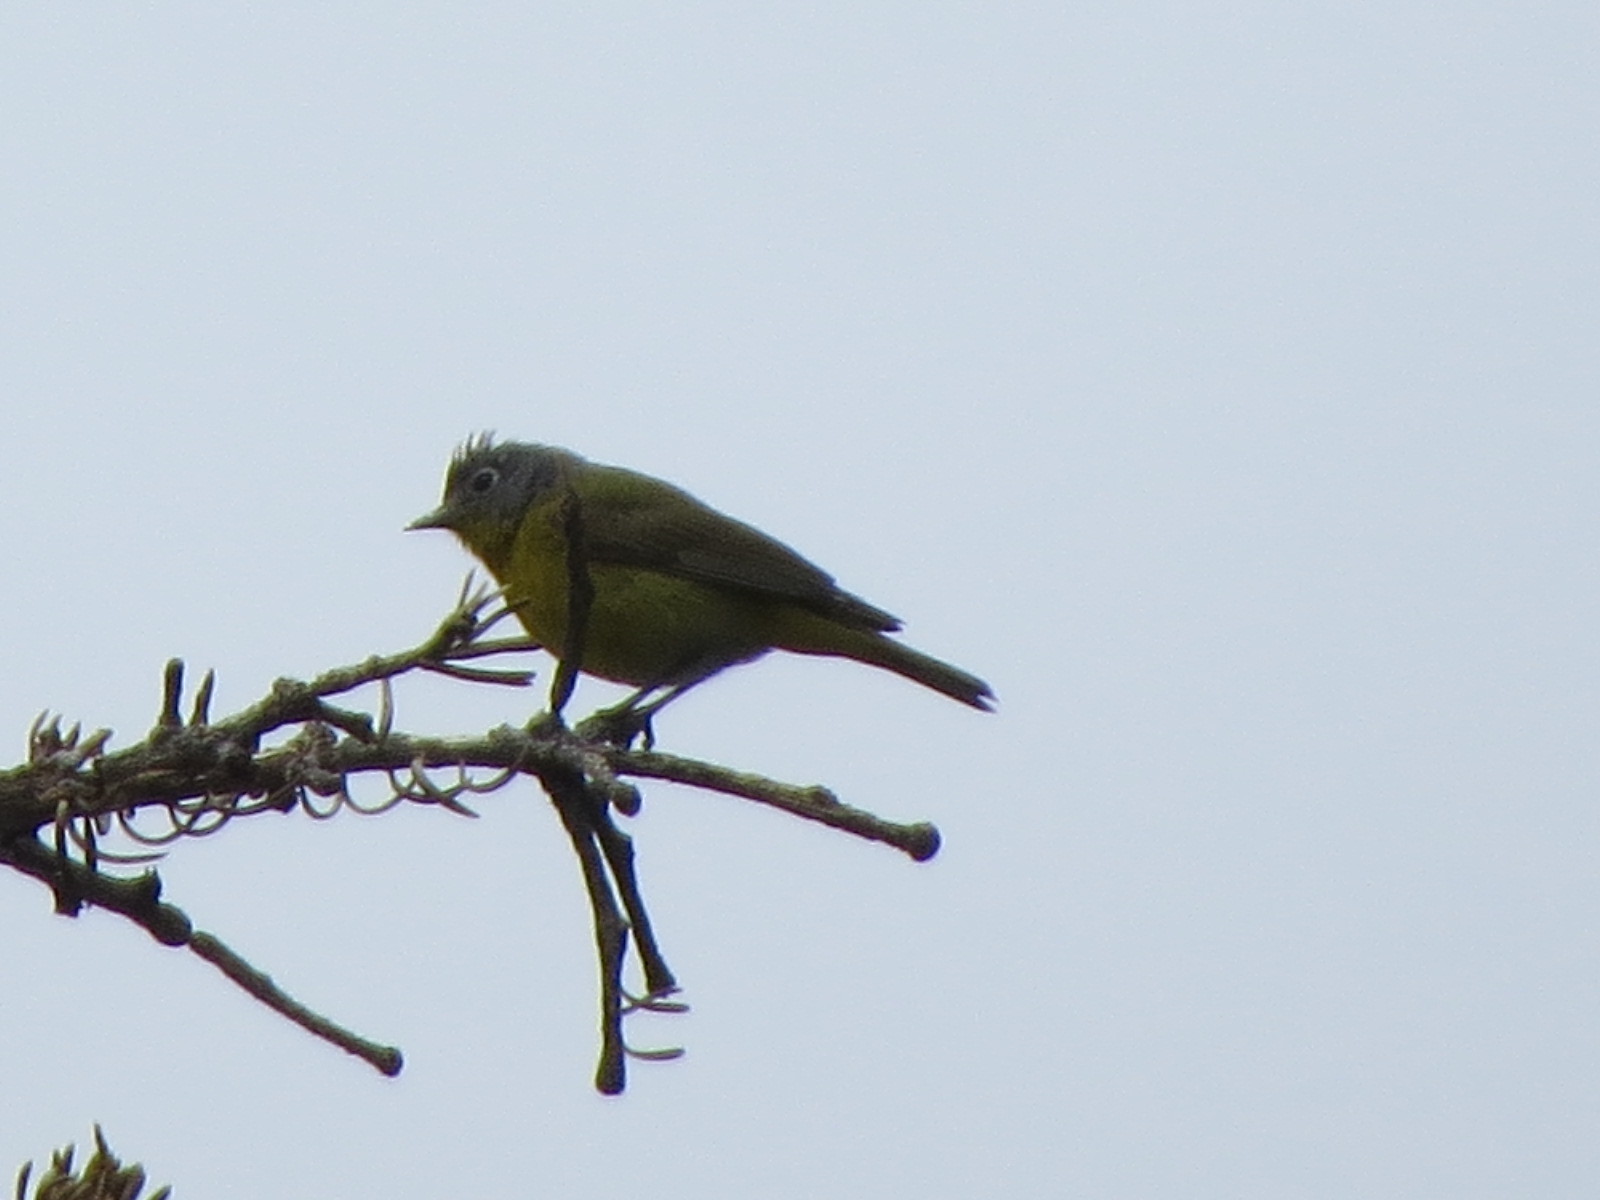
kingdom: Animalia
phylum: Chordata
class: Aves
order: Passeriformes
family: Parulidae
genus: Leiothlypis
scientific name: Leiothlypis ruficapilla
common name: Nashville warbler
